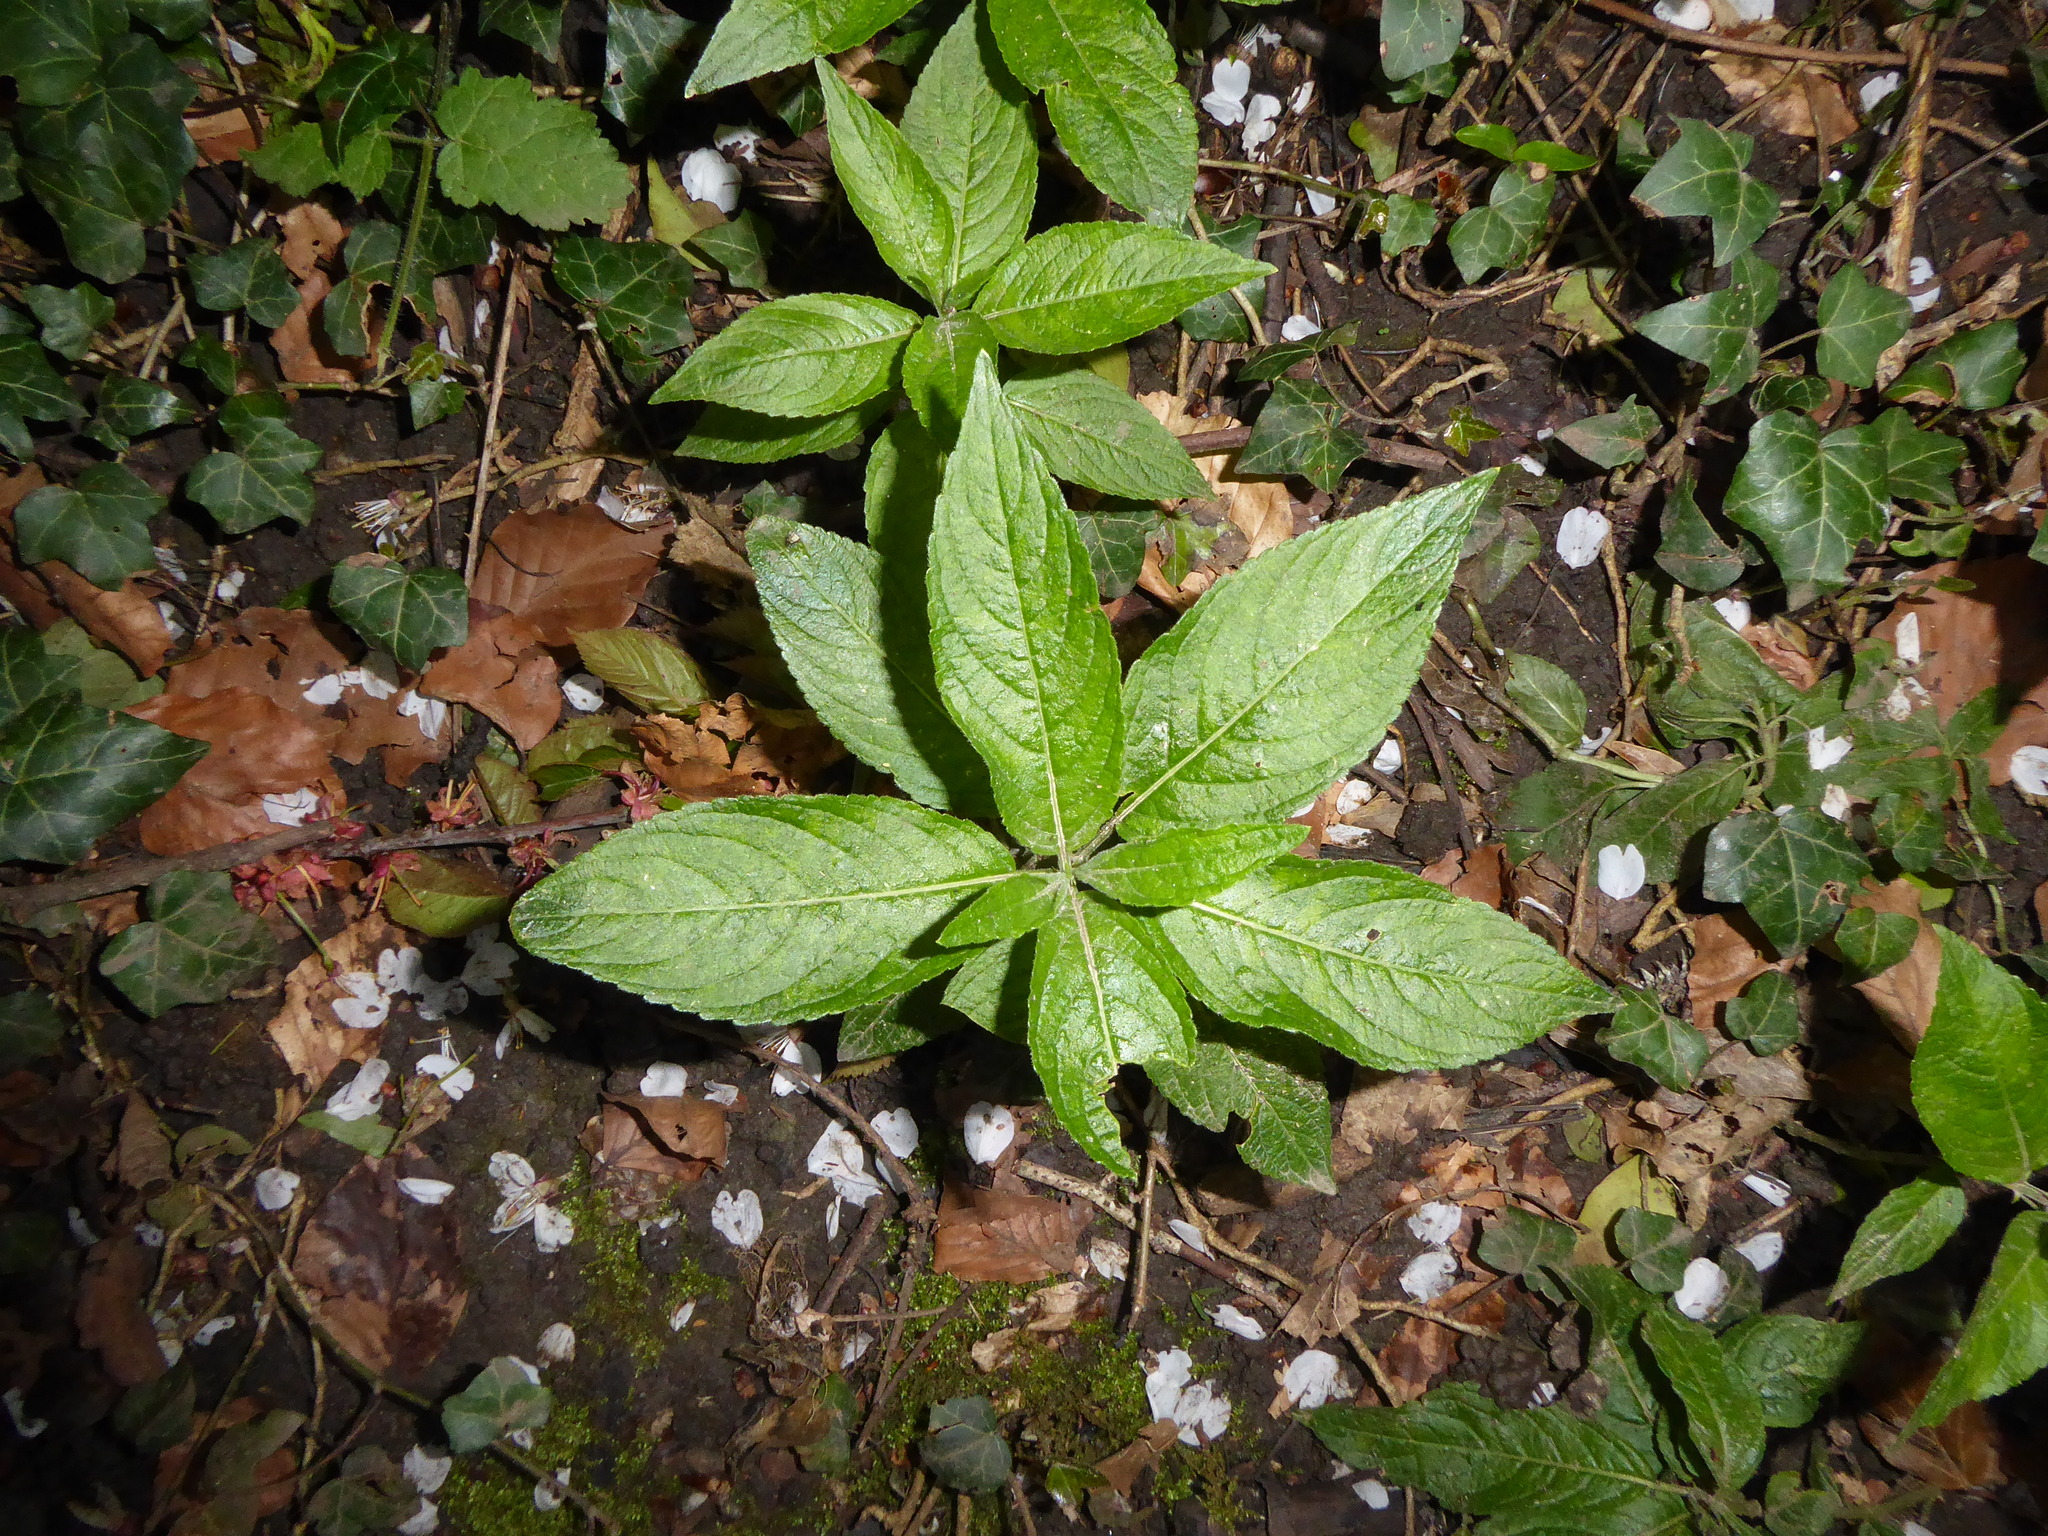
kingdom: Plantae
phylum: Tracheophyta
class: Magnoliopsida
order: Malpighiales
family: Euphorbiaceae
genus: Mercurialis
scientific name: Mercurialis perennis
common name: Dog mercury
